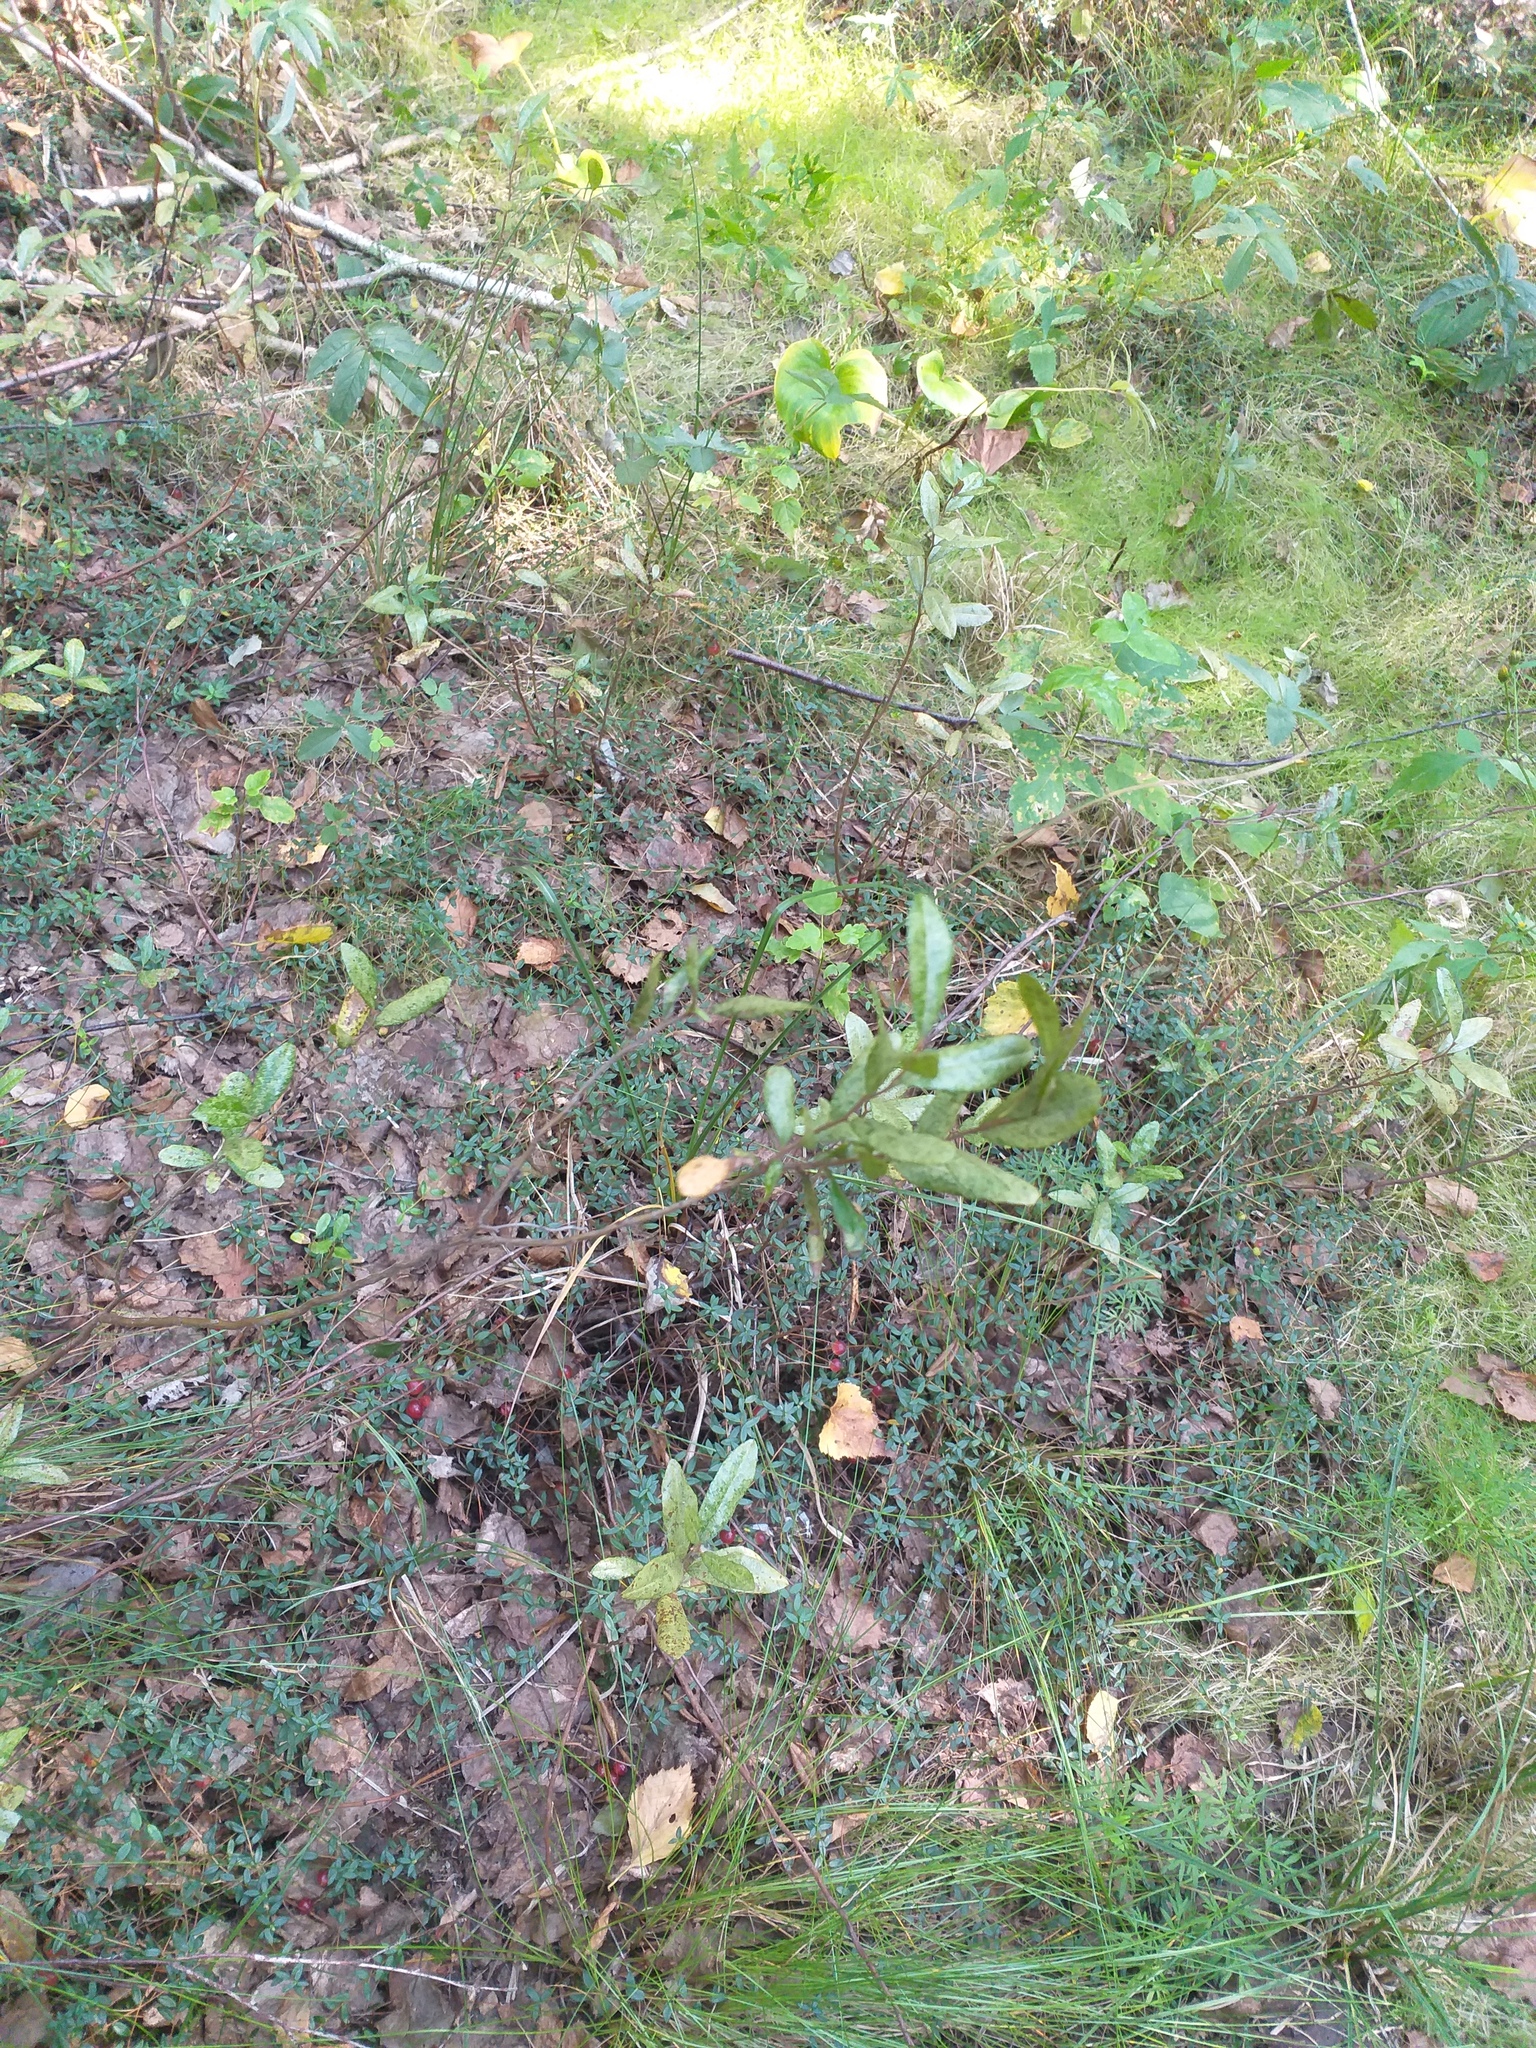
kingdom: Plantae
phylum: Tracheophyta
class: Magnoliopsida
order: Ericales
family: Ericaceae
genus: Chamaedaphne
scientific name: Chamaedaphne calyculata
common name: Leatherleaf
